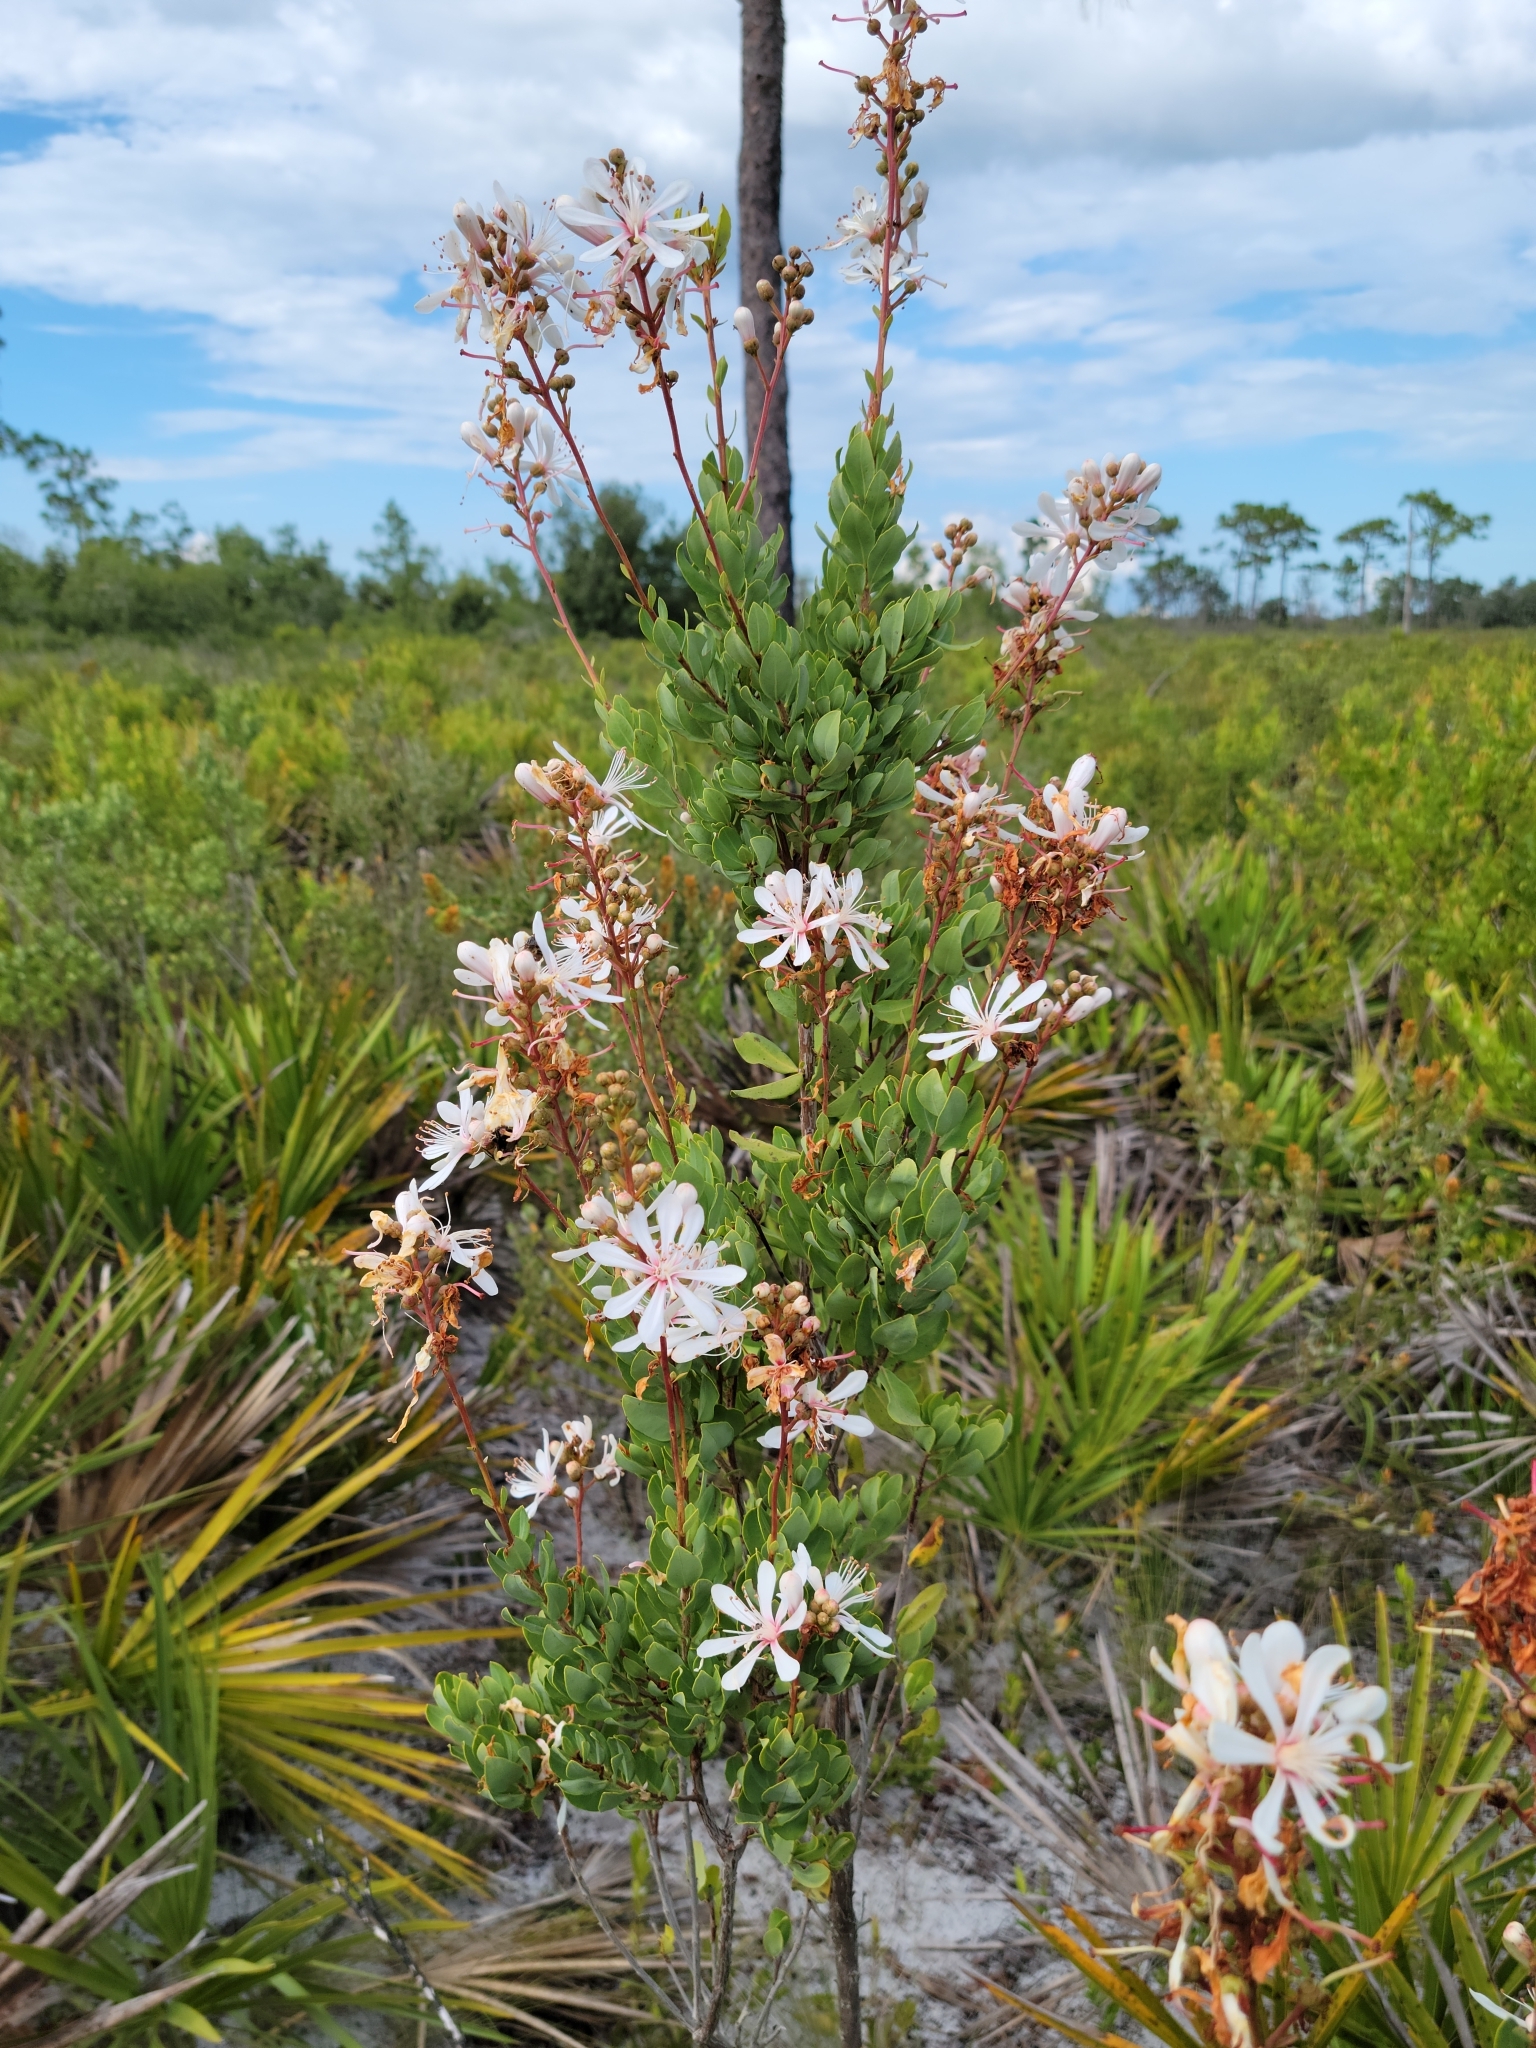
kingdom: Plantae
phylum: Tracheophyta
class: Magnoliopsida
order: Ericales
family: Ericaceae
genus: Bejaria
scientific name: Bejaria racemosa
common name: Tarflower
